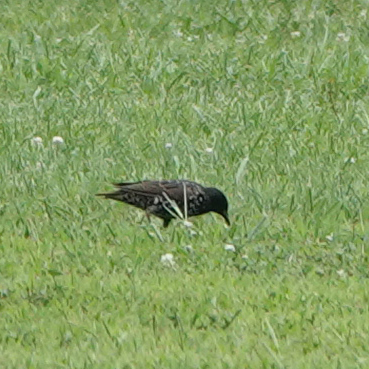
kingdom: Animalia
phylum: Chordata
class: Aves
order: Passeriformes
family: Sturnidae
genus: Sturnus
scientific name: Sturnus vulgaris
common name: Common starling
